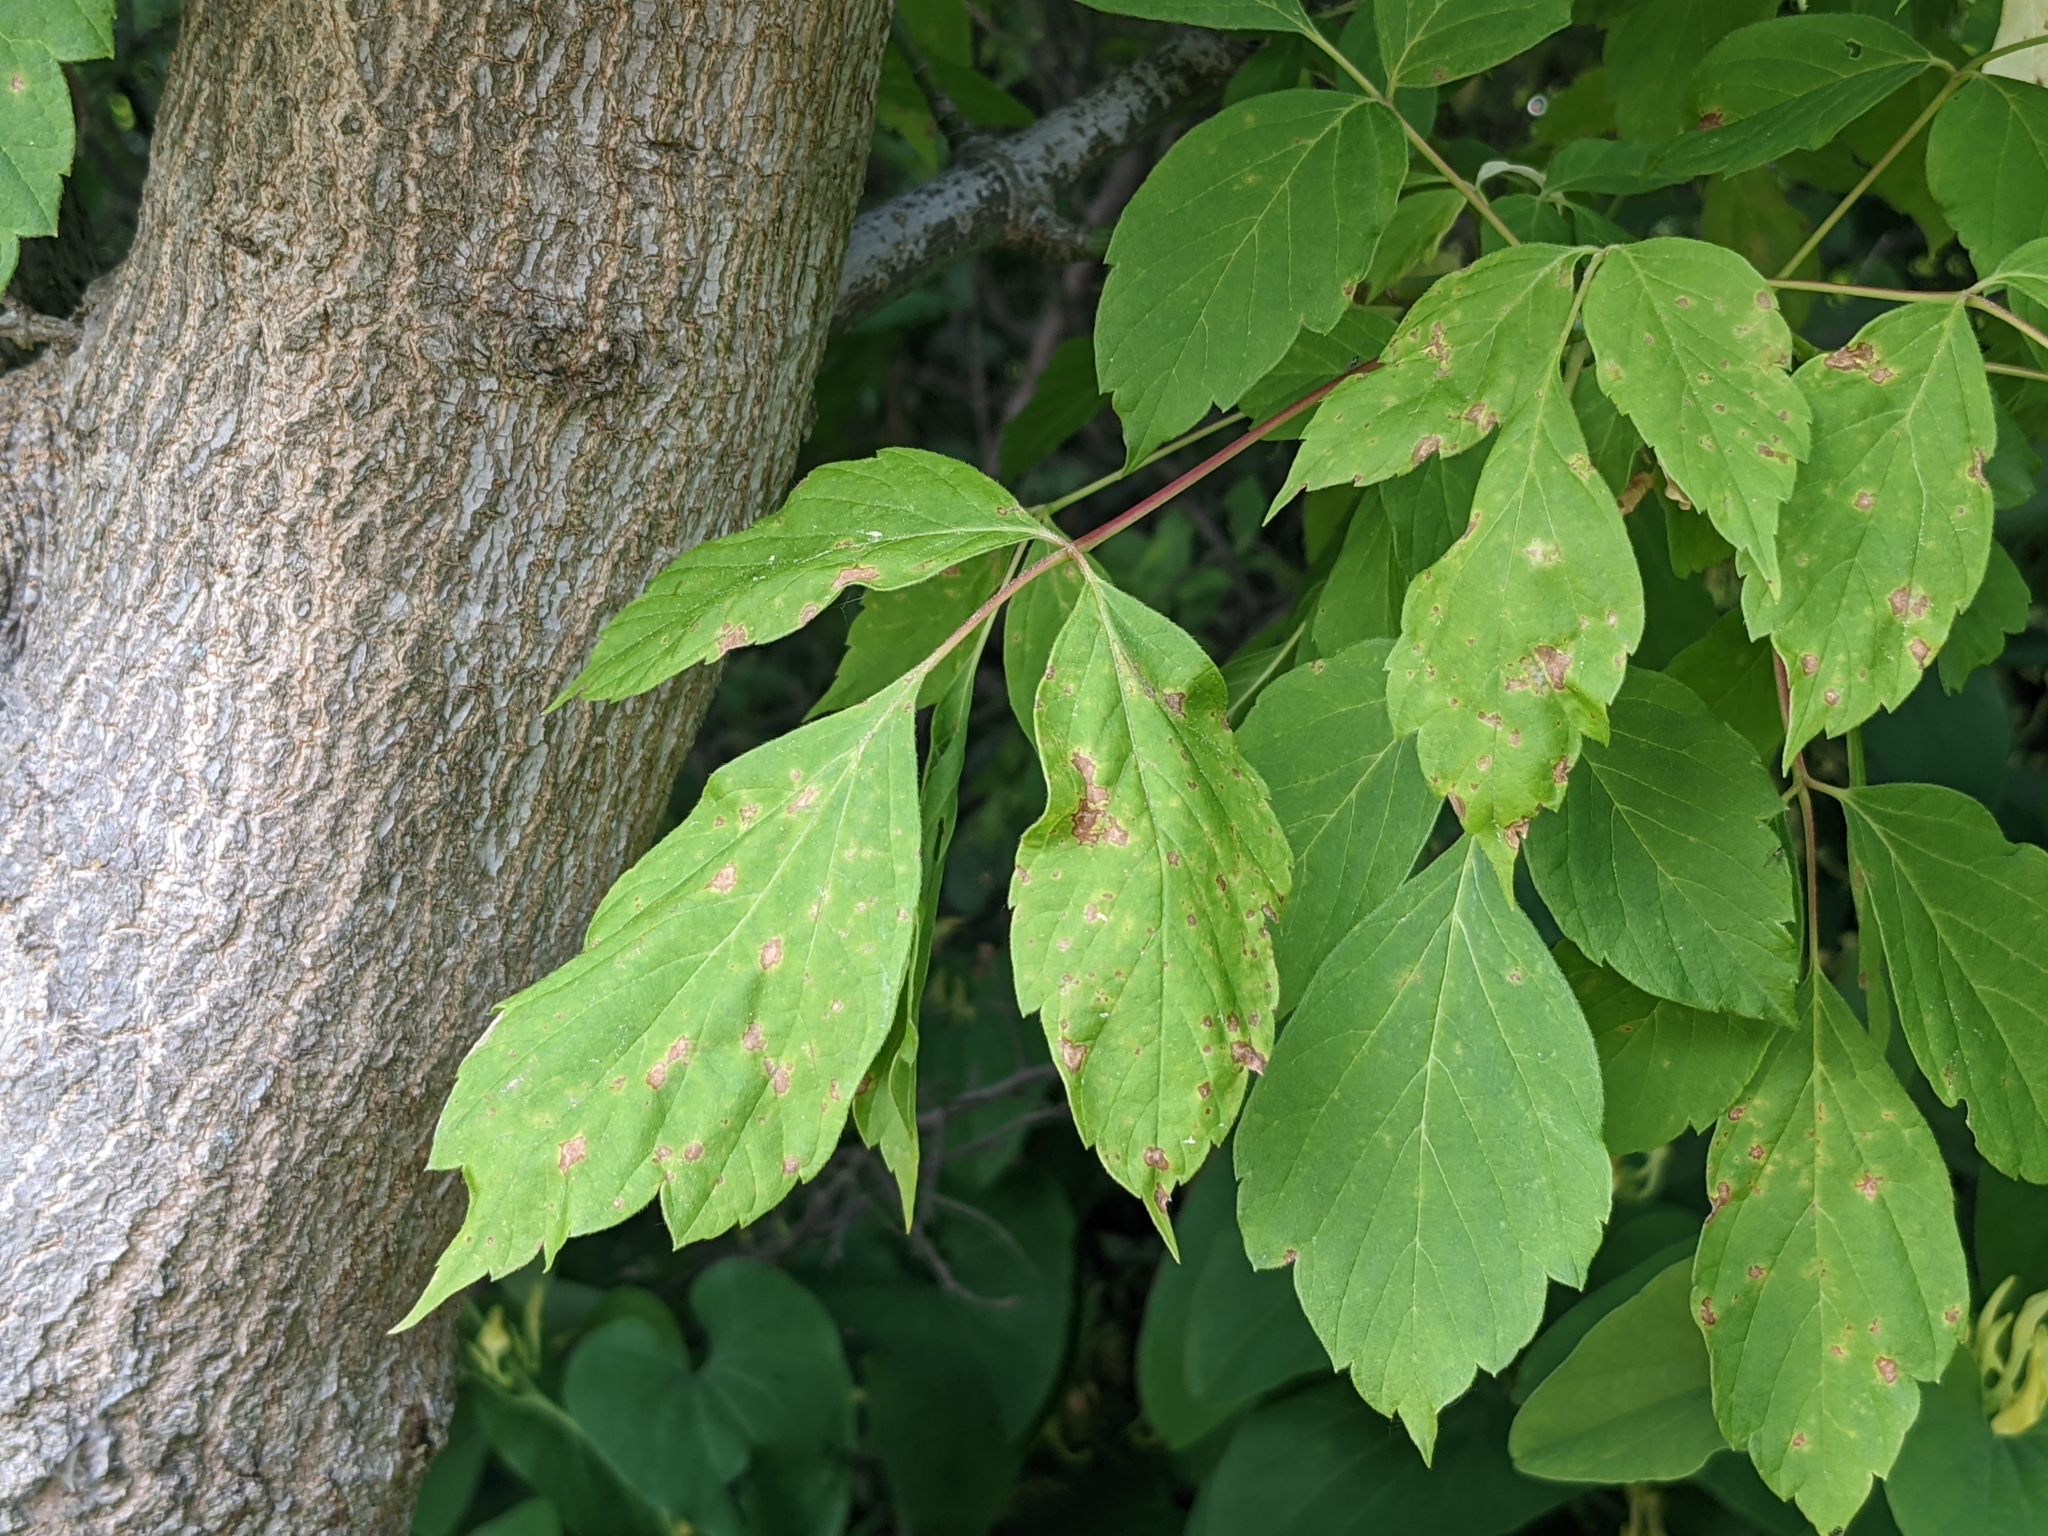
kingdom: Plantae
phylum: Tracheophyta
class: Magnoliopsida
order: Sapindales
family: Sapindaceae
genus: Acer
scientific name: Acer negundo
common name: Ashleaf maple
